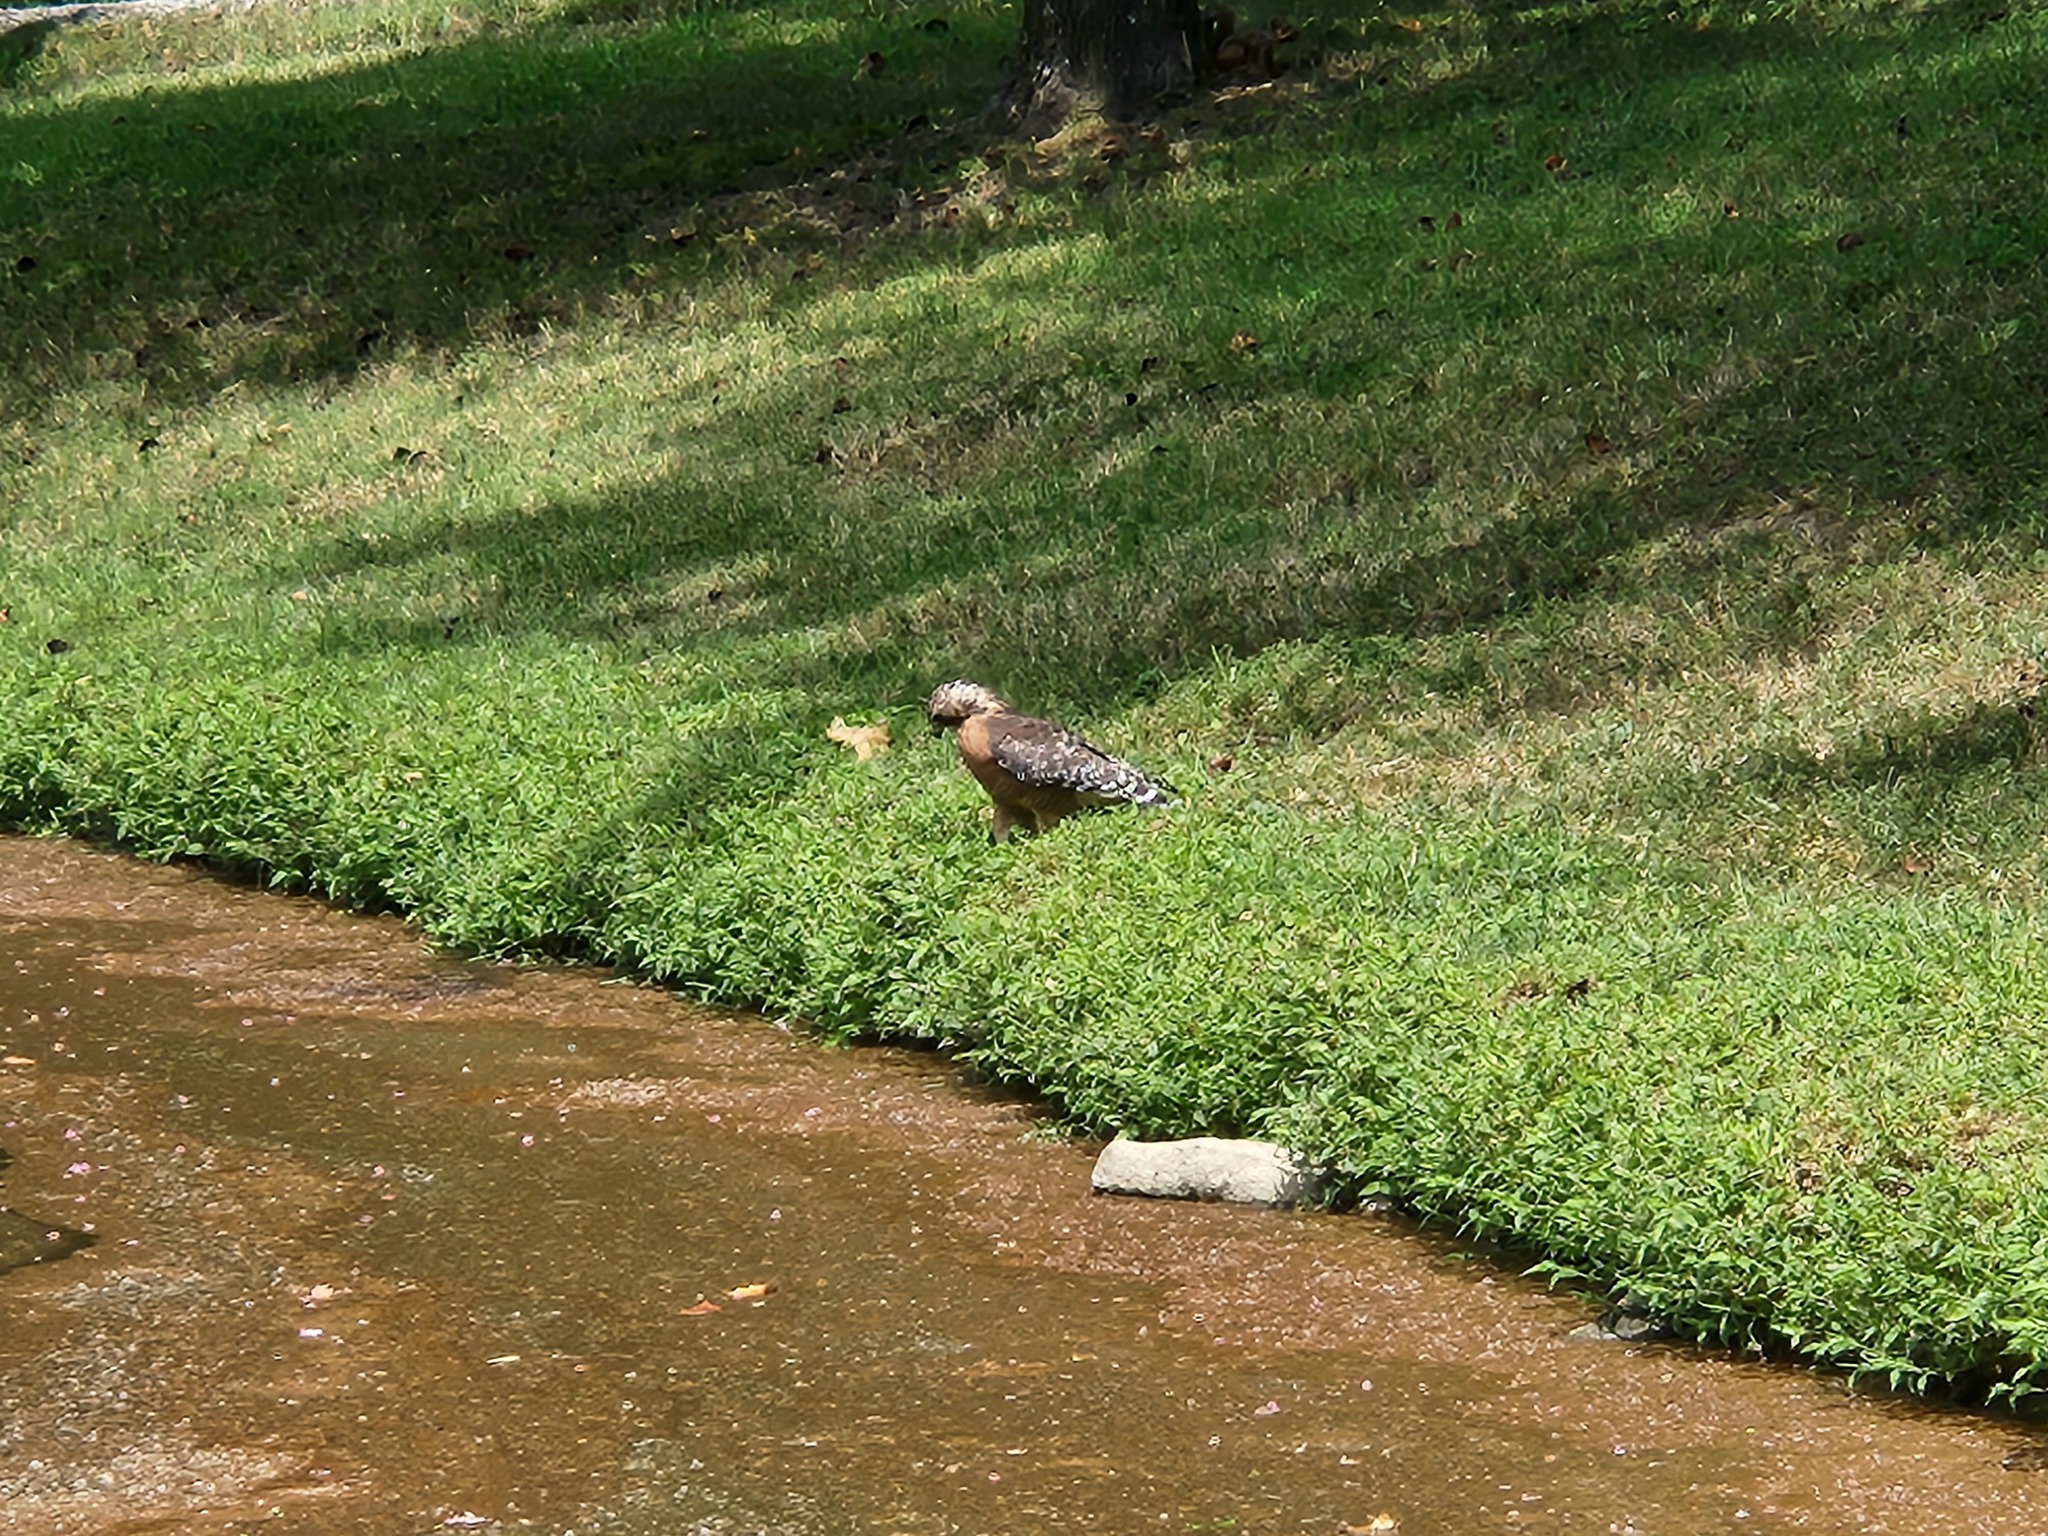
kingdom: Animalia
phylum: Chordata
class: Aves
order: Accipitriformes
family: Accipitridae
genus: Buteo
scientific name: Buteo lineatus
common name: Red-shouldered hawk
